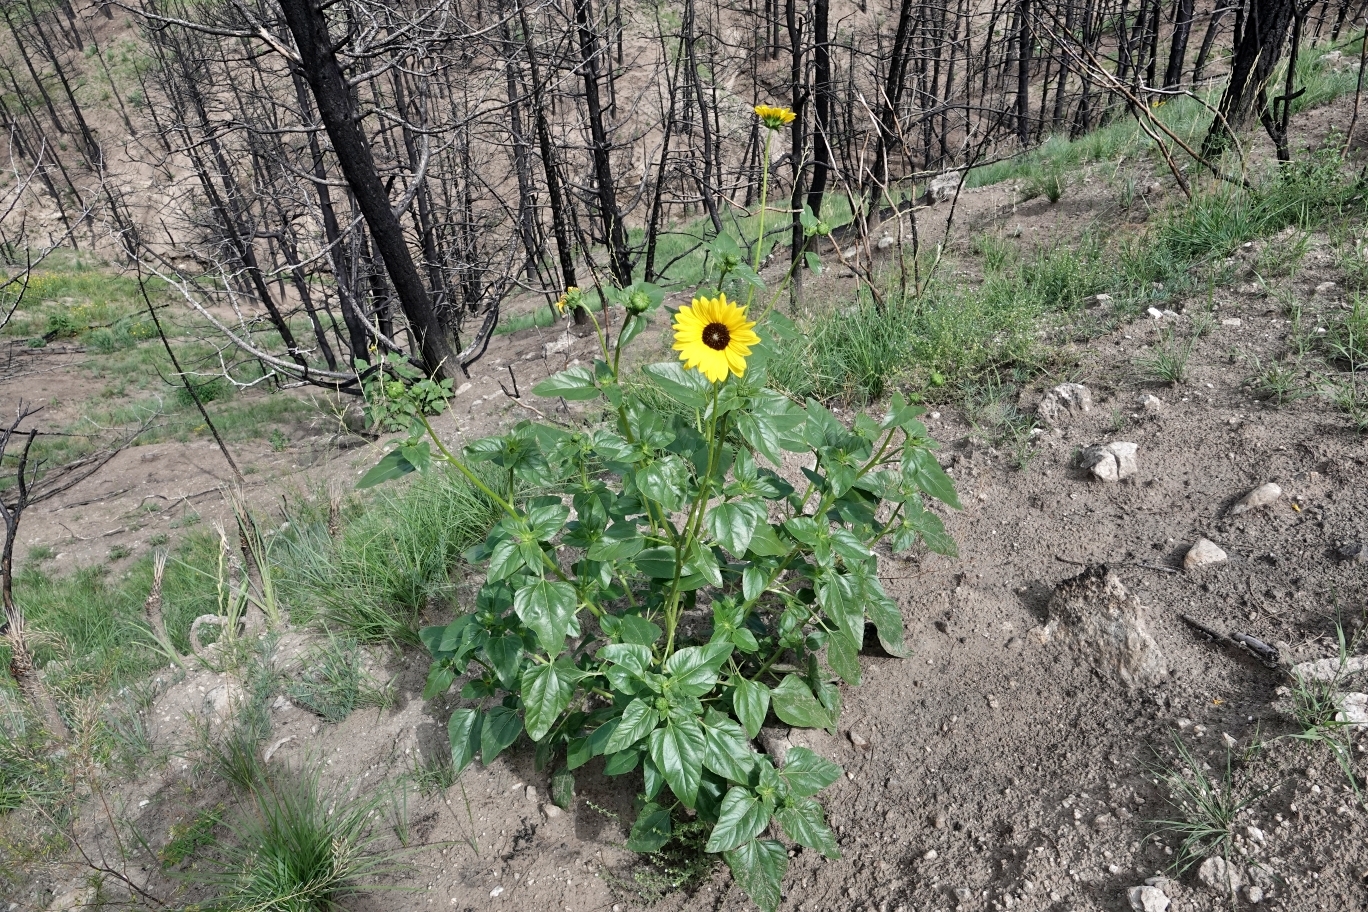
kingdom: Plantae
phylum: Tracheophyta
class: Magnoliopsida
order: Asterales
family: Asteraceae
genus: Helianthus
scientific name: Helianthus petiolaris
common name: Lesser sunflower
